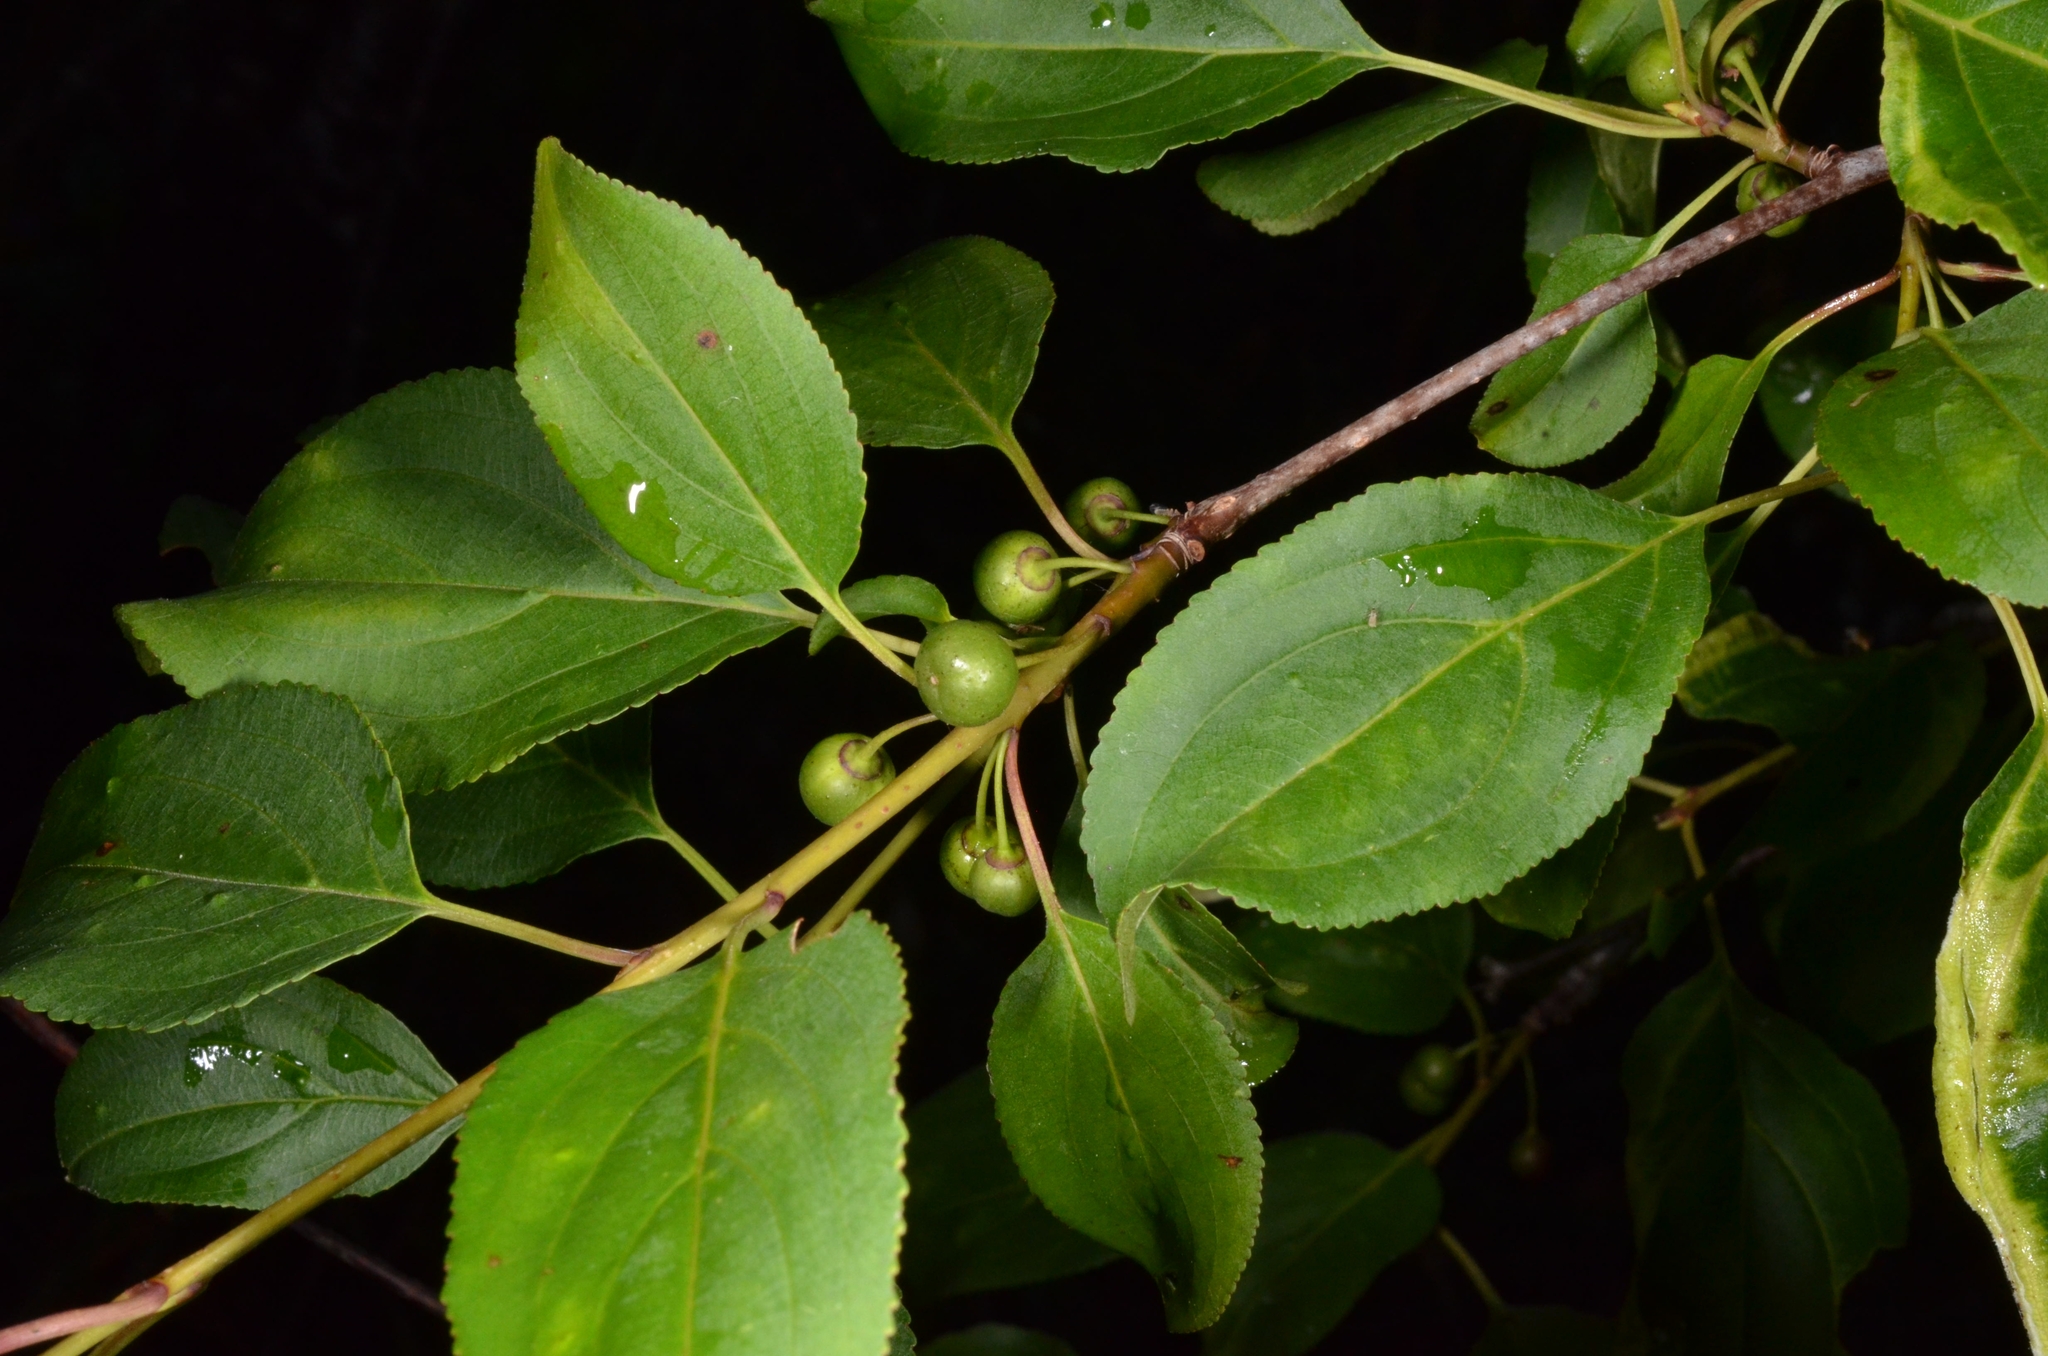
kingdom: Plantae
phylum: Tracheophyta
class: Magnoliopsida
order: Rosales
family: Rhamnaceae
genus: Rhamnus
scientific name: Rhamnus cathartica
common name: Common buckthorn
